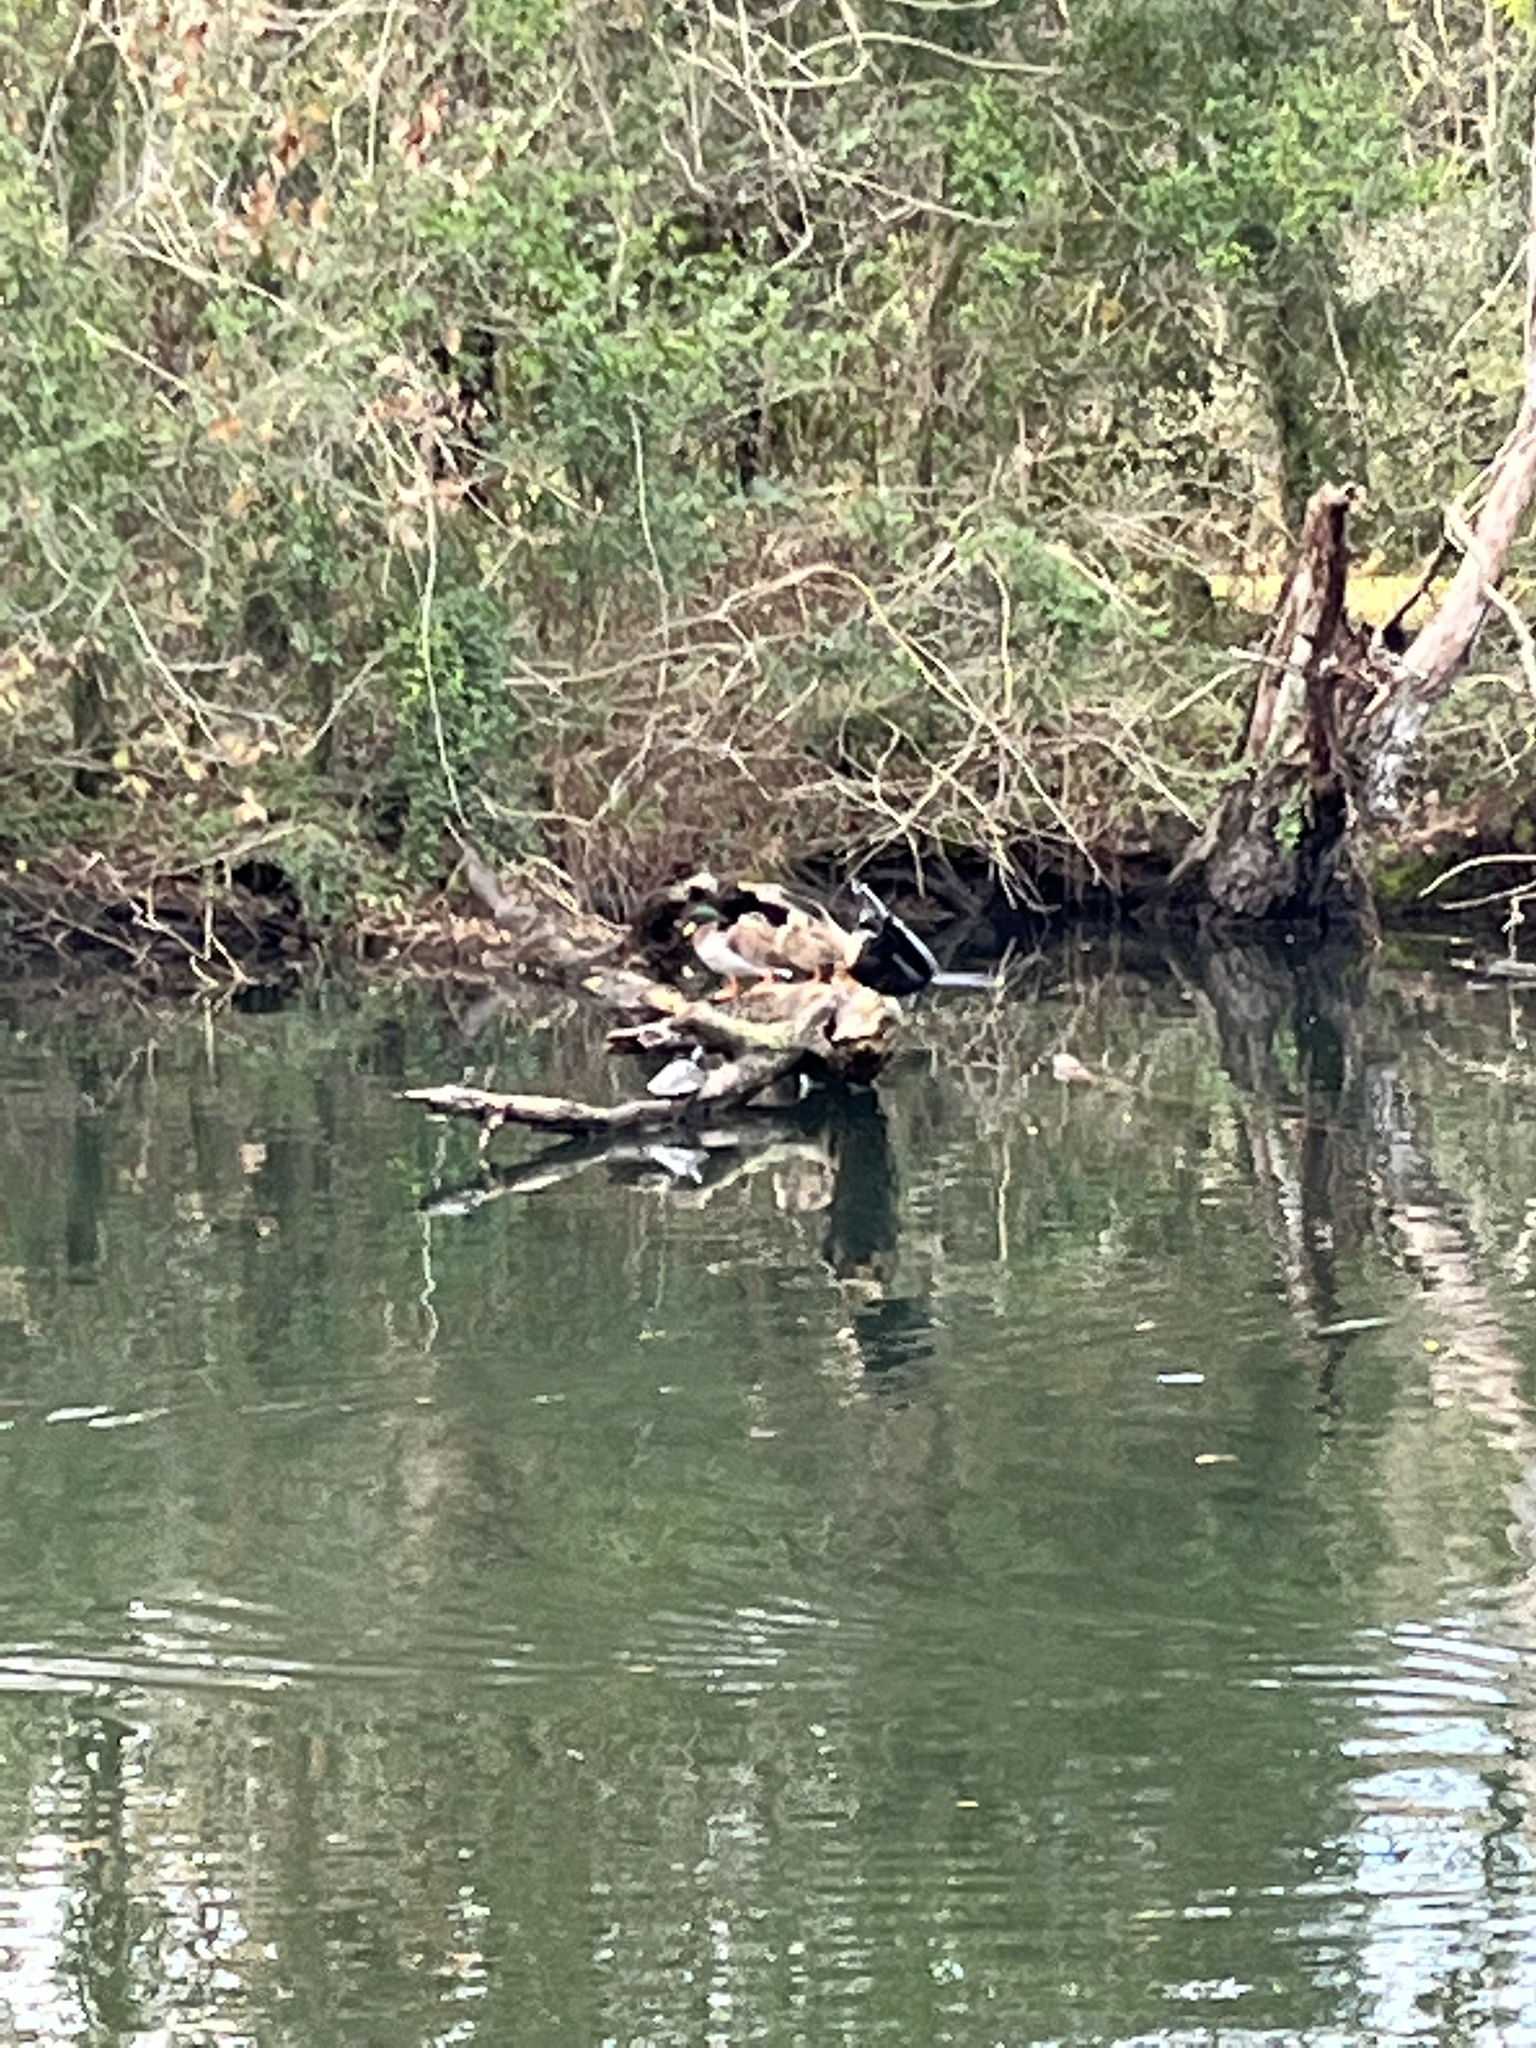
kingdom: Animalia
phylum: Chordata
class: Aves
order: Suliformes
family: Anhingidae
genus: Anhinga
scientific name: Anhinga anhinga
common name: Anhinga
